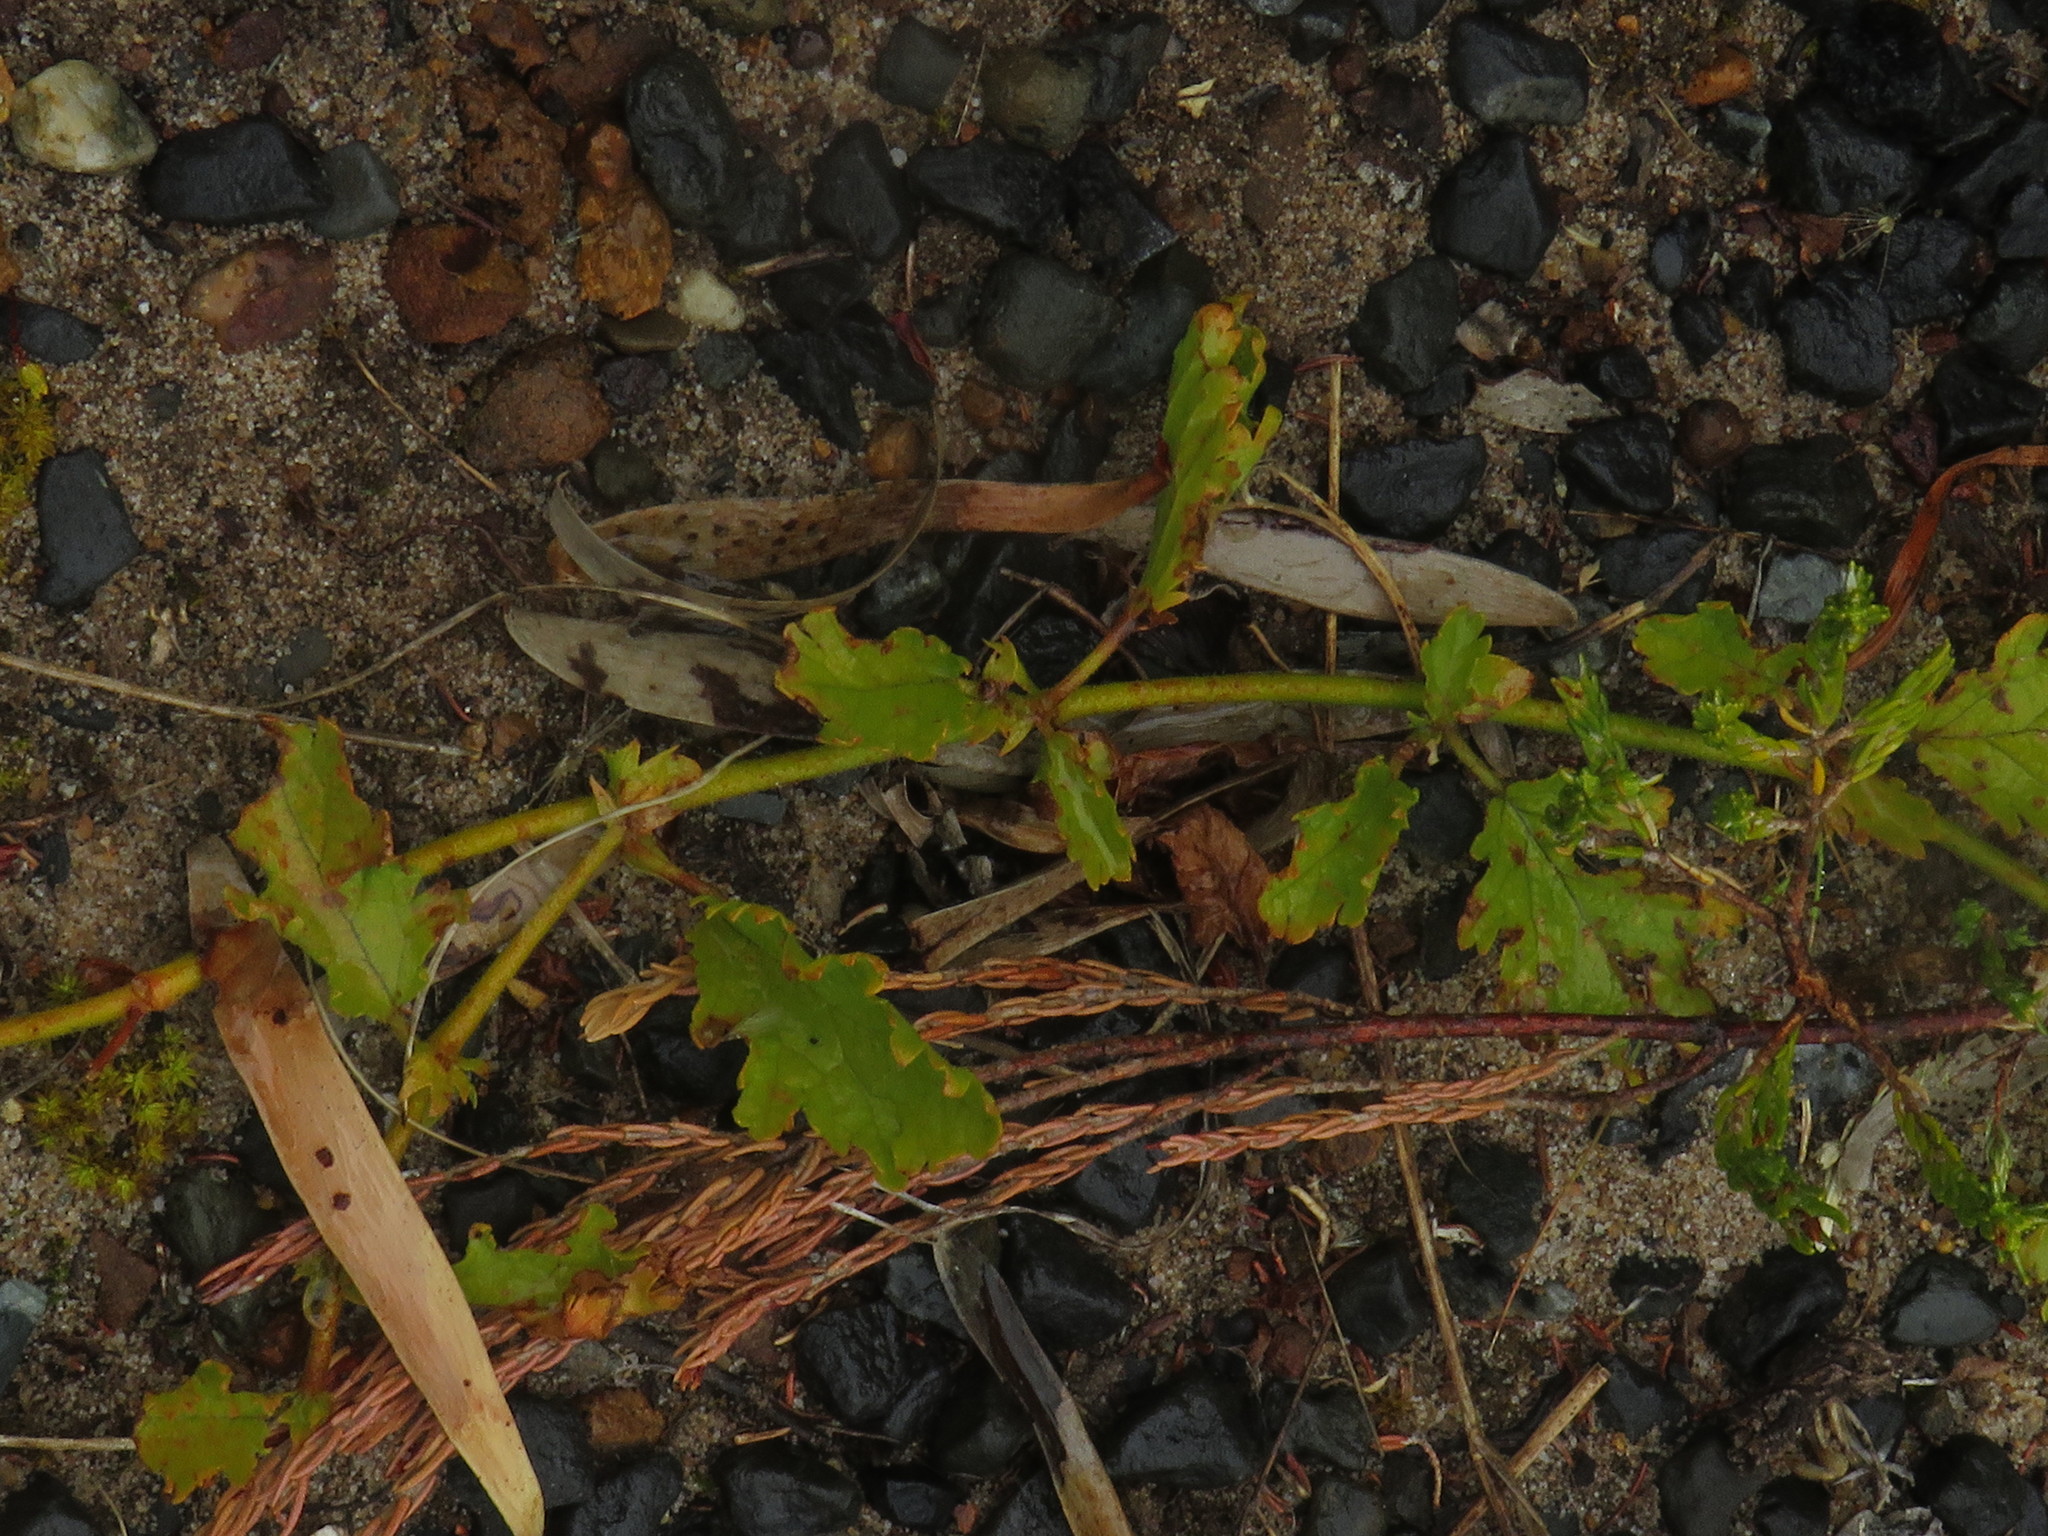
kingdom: Plantae
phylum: Tracheophyta
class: Magnoliopsida
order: Malvales
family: Malvaceae
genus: Hermannia
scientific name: Hermannia scabricaulis
